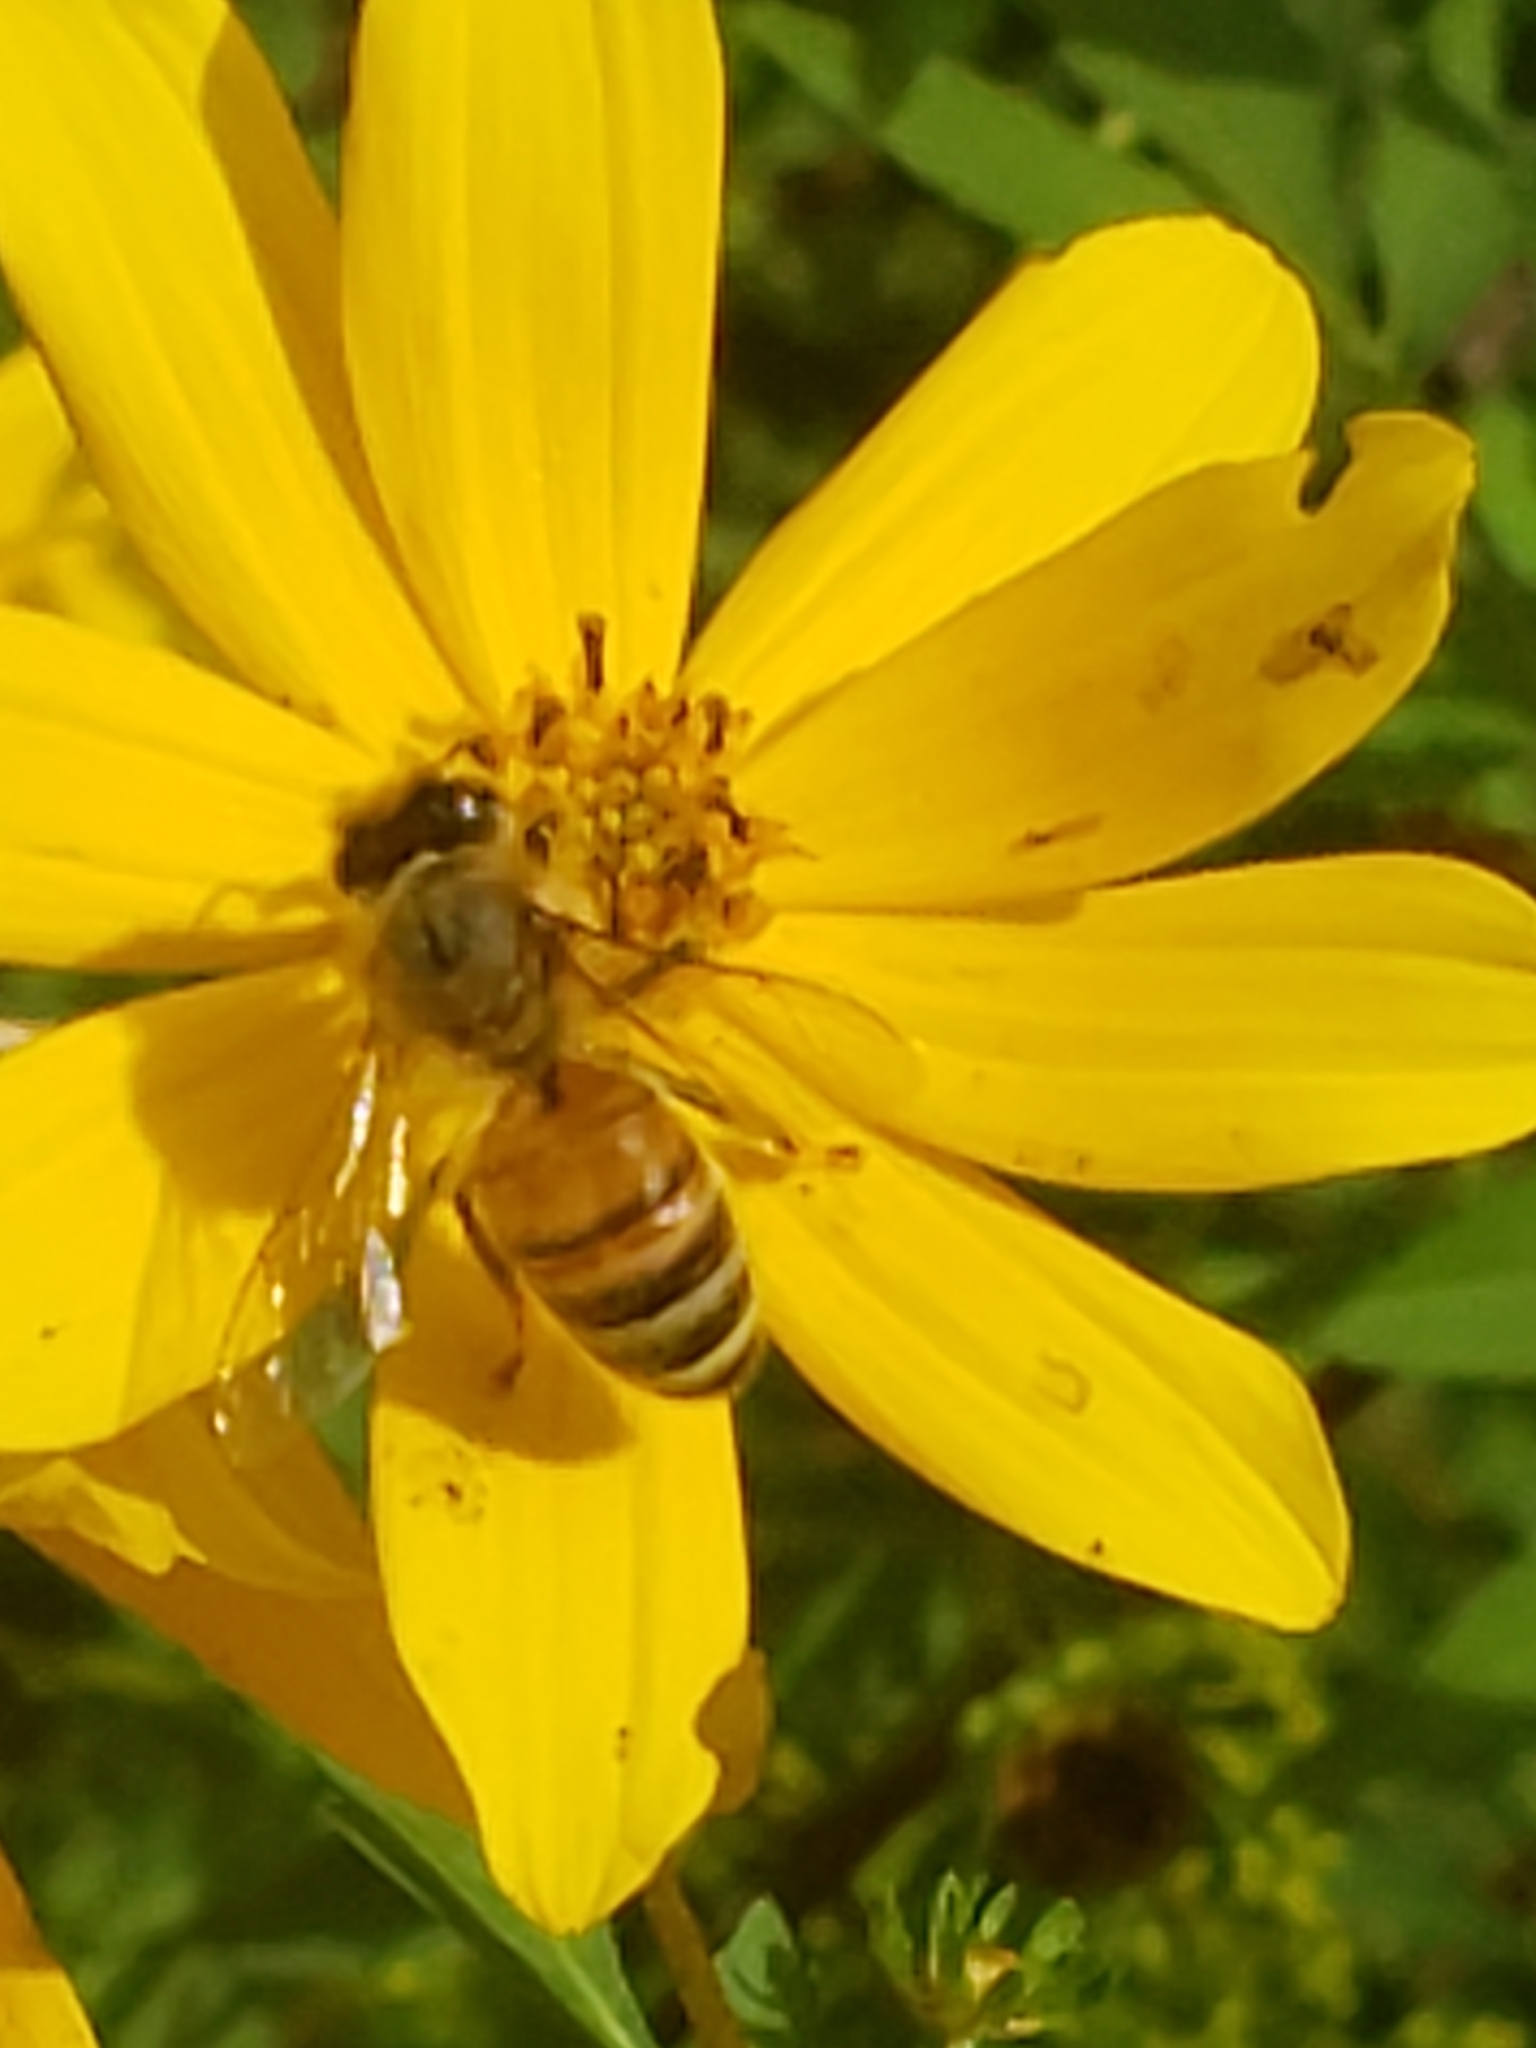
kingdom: Animalia
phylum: Arthropoda
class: Insecta
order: Hymenoptera
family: Apidae
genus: Apis
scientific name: Apis mellifera
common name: Honey bee
